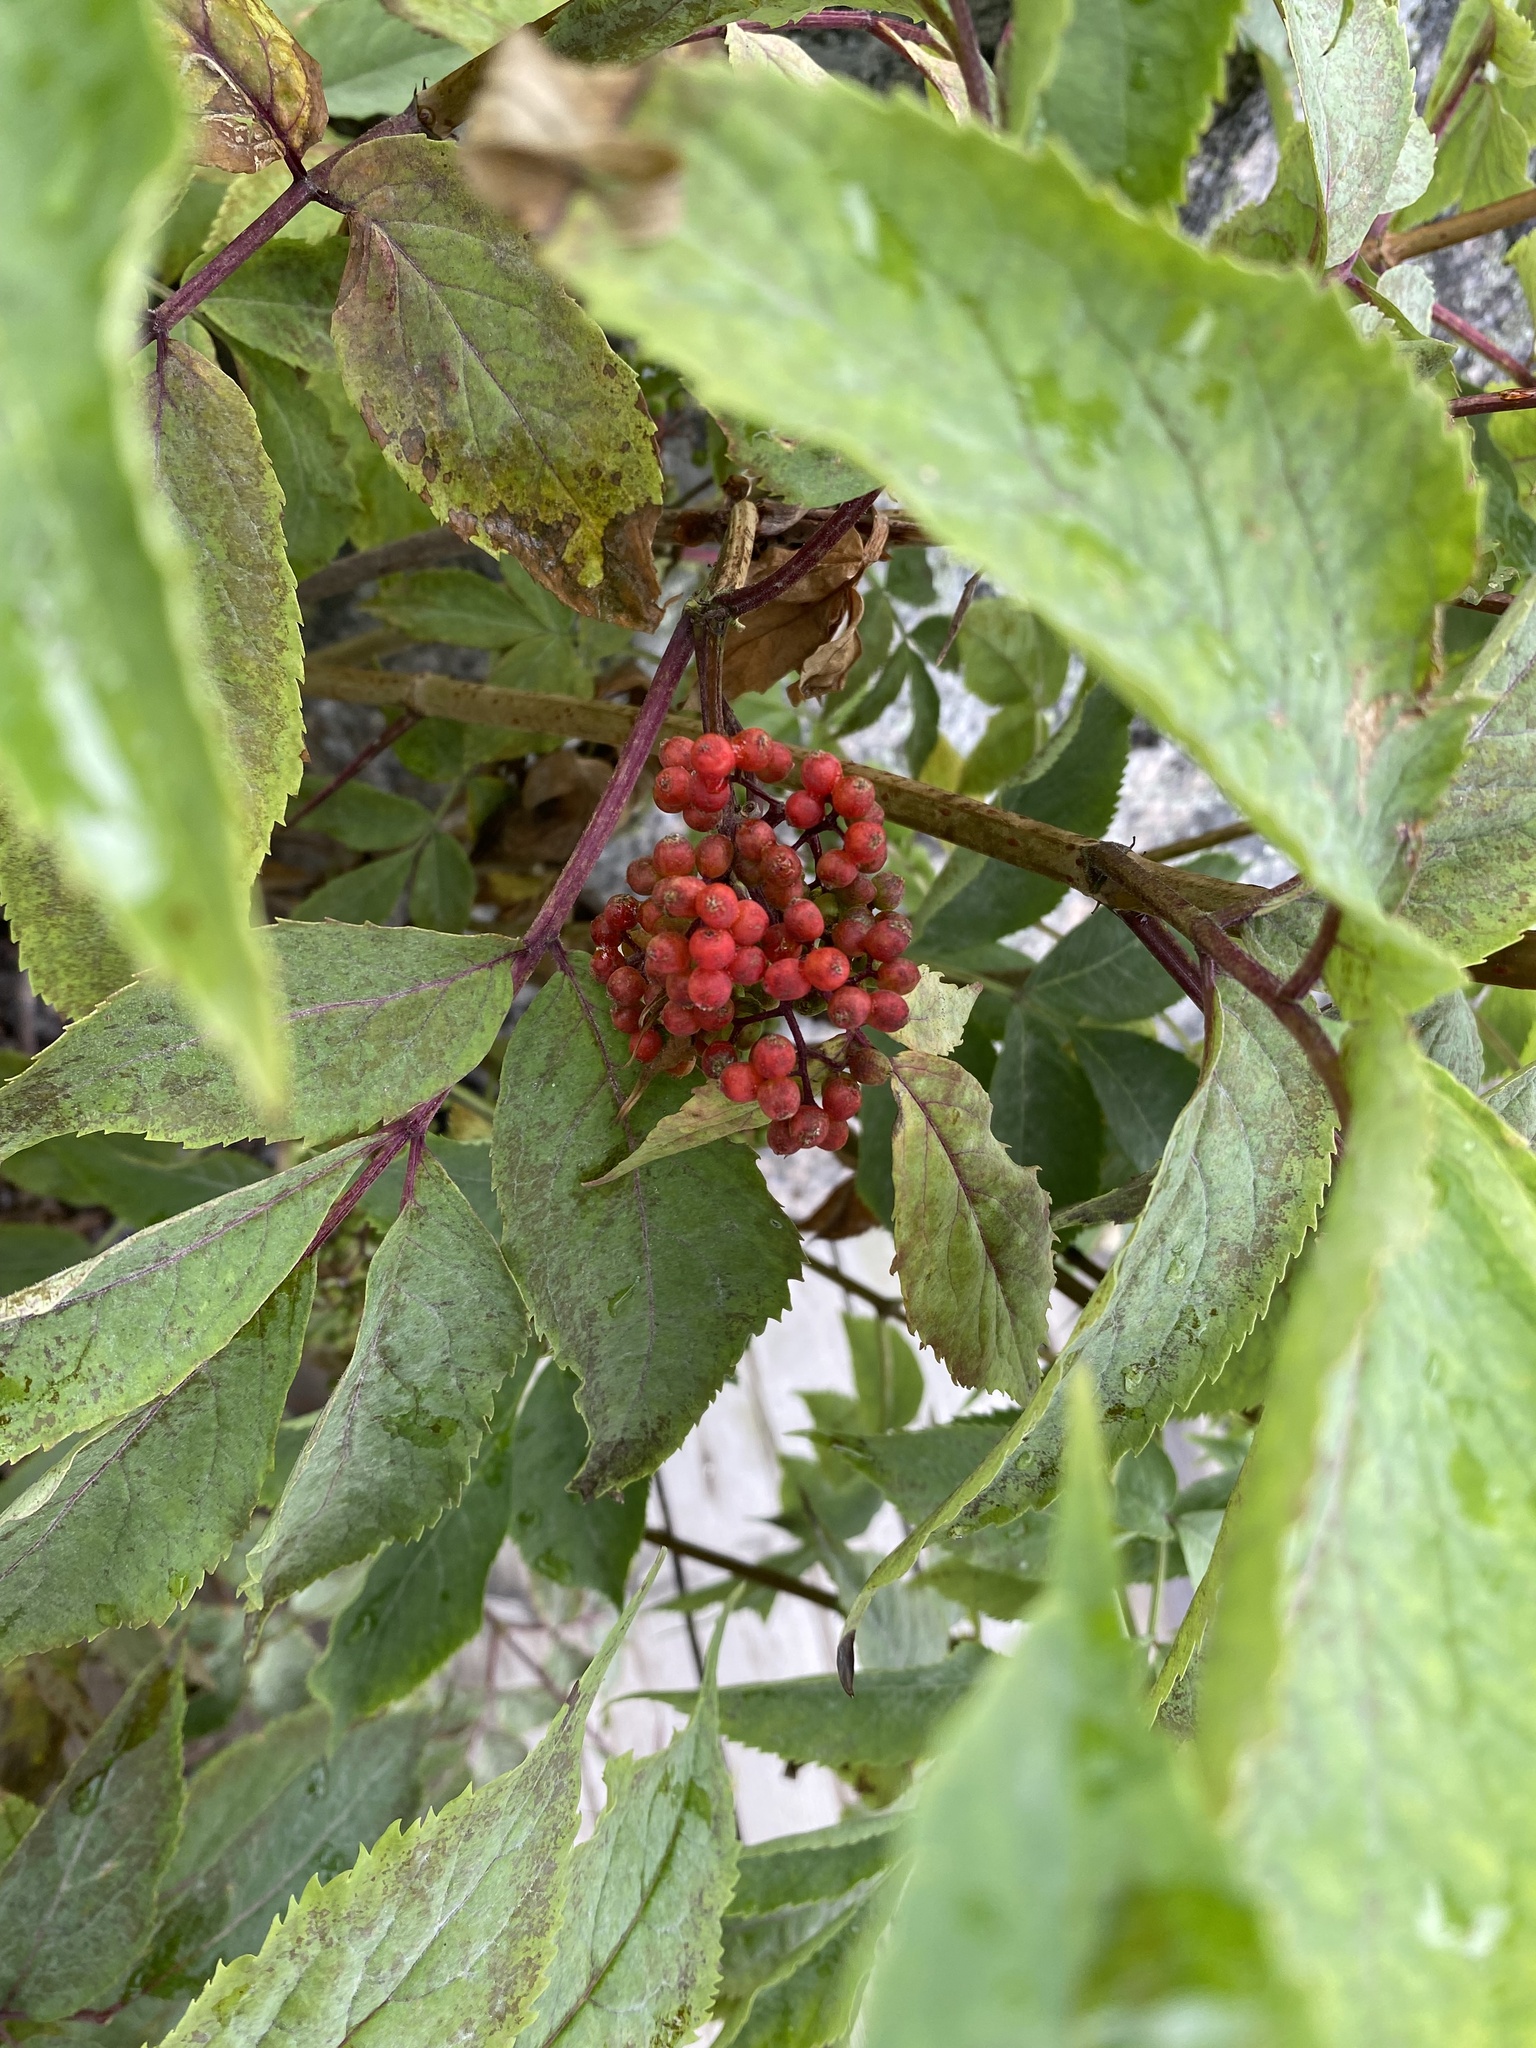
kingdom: Plantae
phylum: Tracheophyta
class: Magnoliopsida
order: Dipsacales
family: Viburnaceae
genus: Sambucus
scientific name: Sambucus racemosa
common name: Red-berried elder
